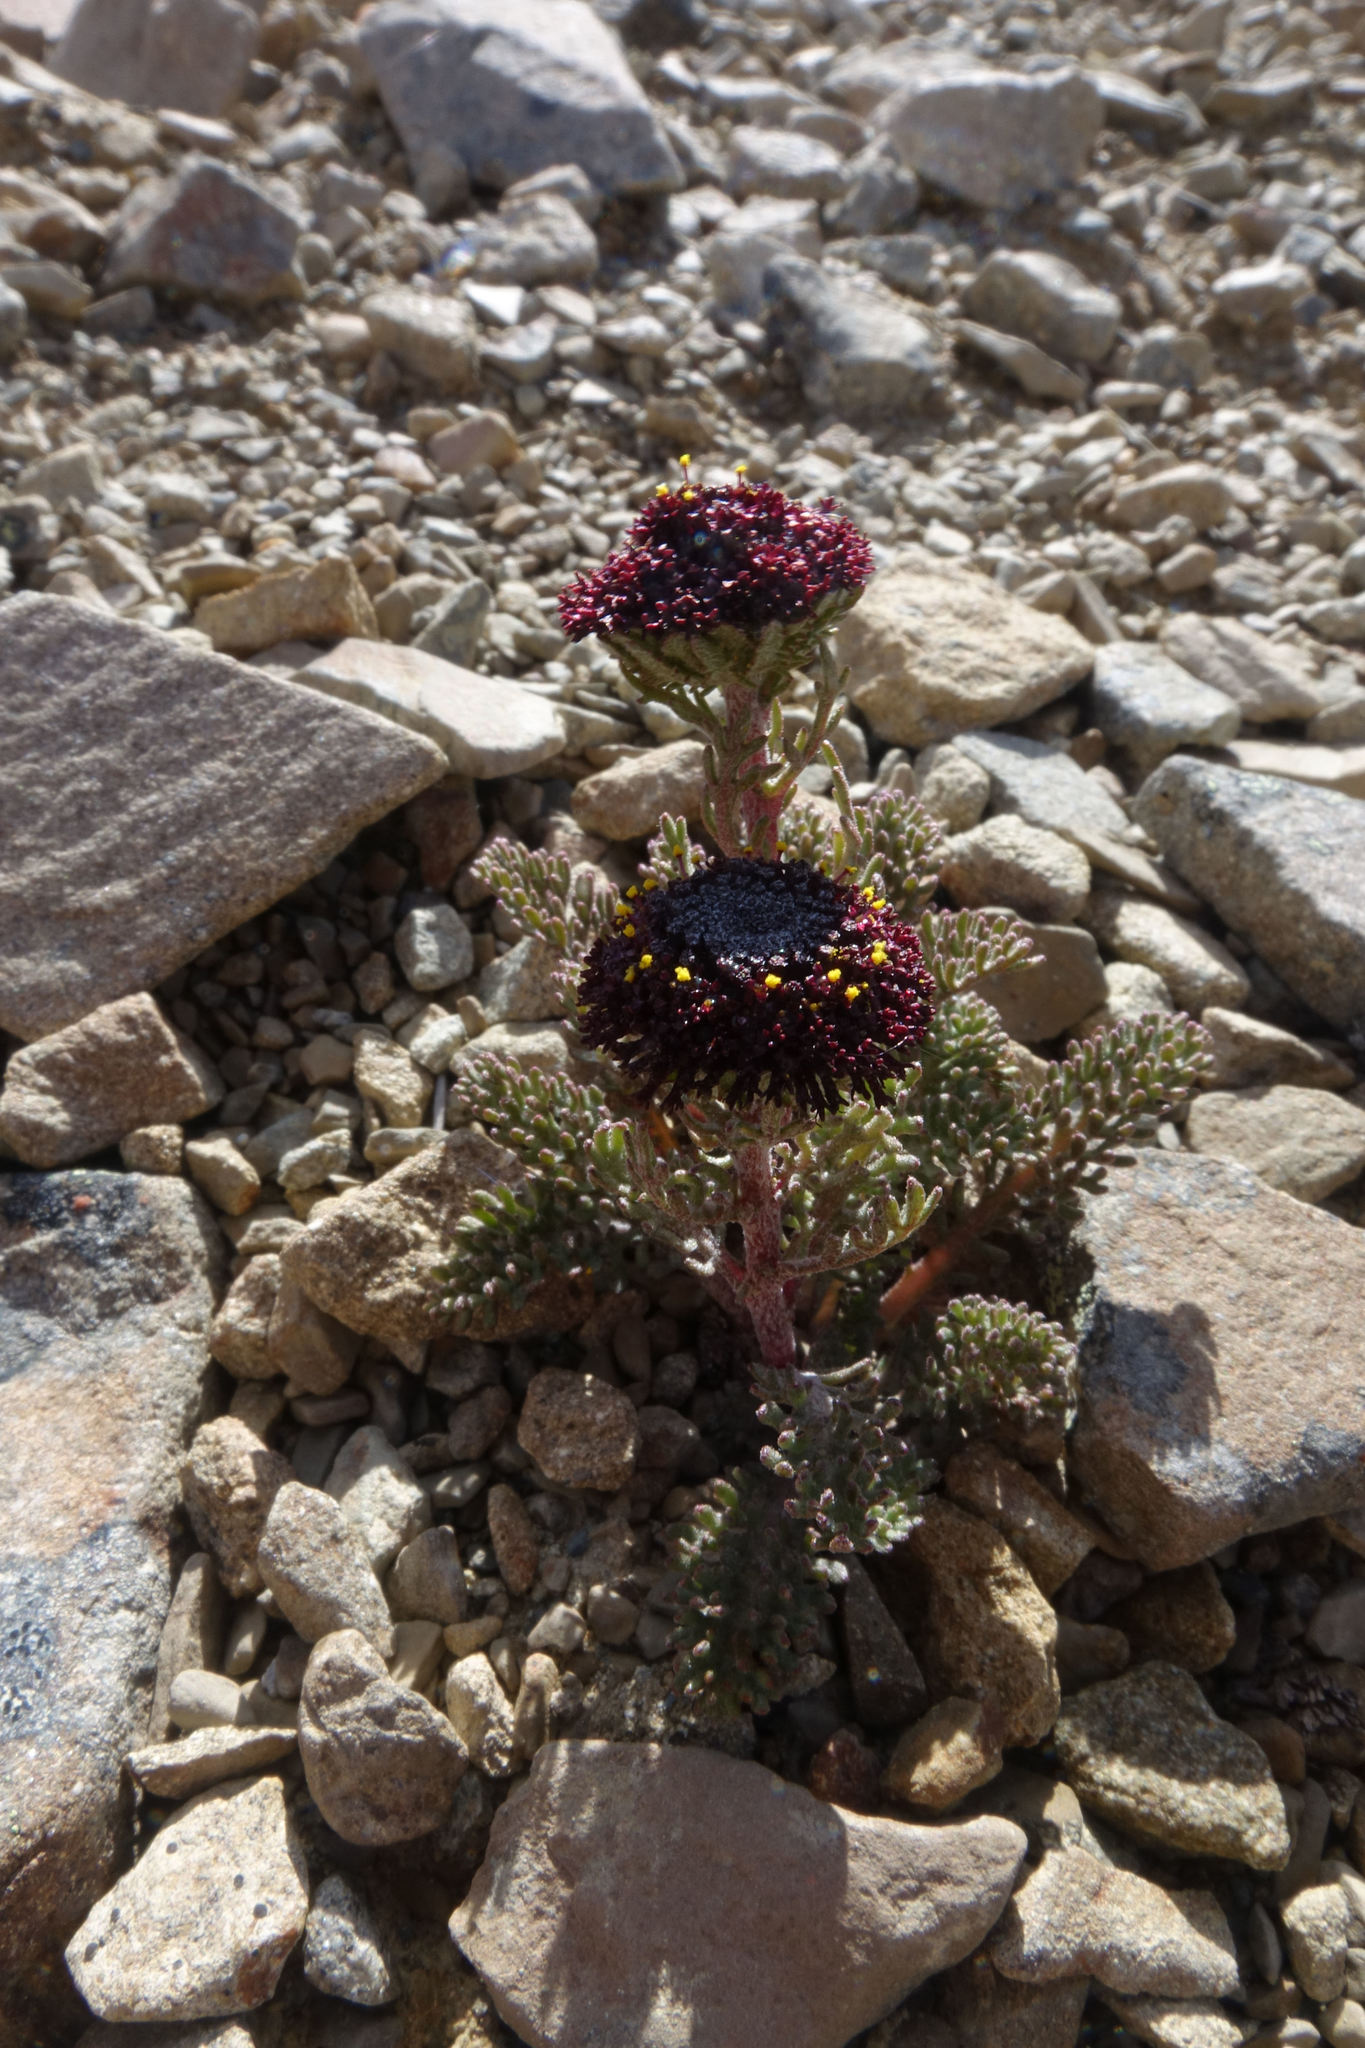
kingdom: Plantae
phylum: Tracheophyta
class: Magnoliopsida
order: Asterales
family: Asteraceae
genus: Leptinella
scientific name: Leptinella atrata
